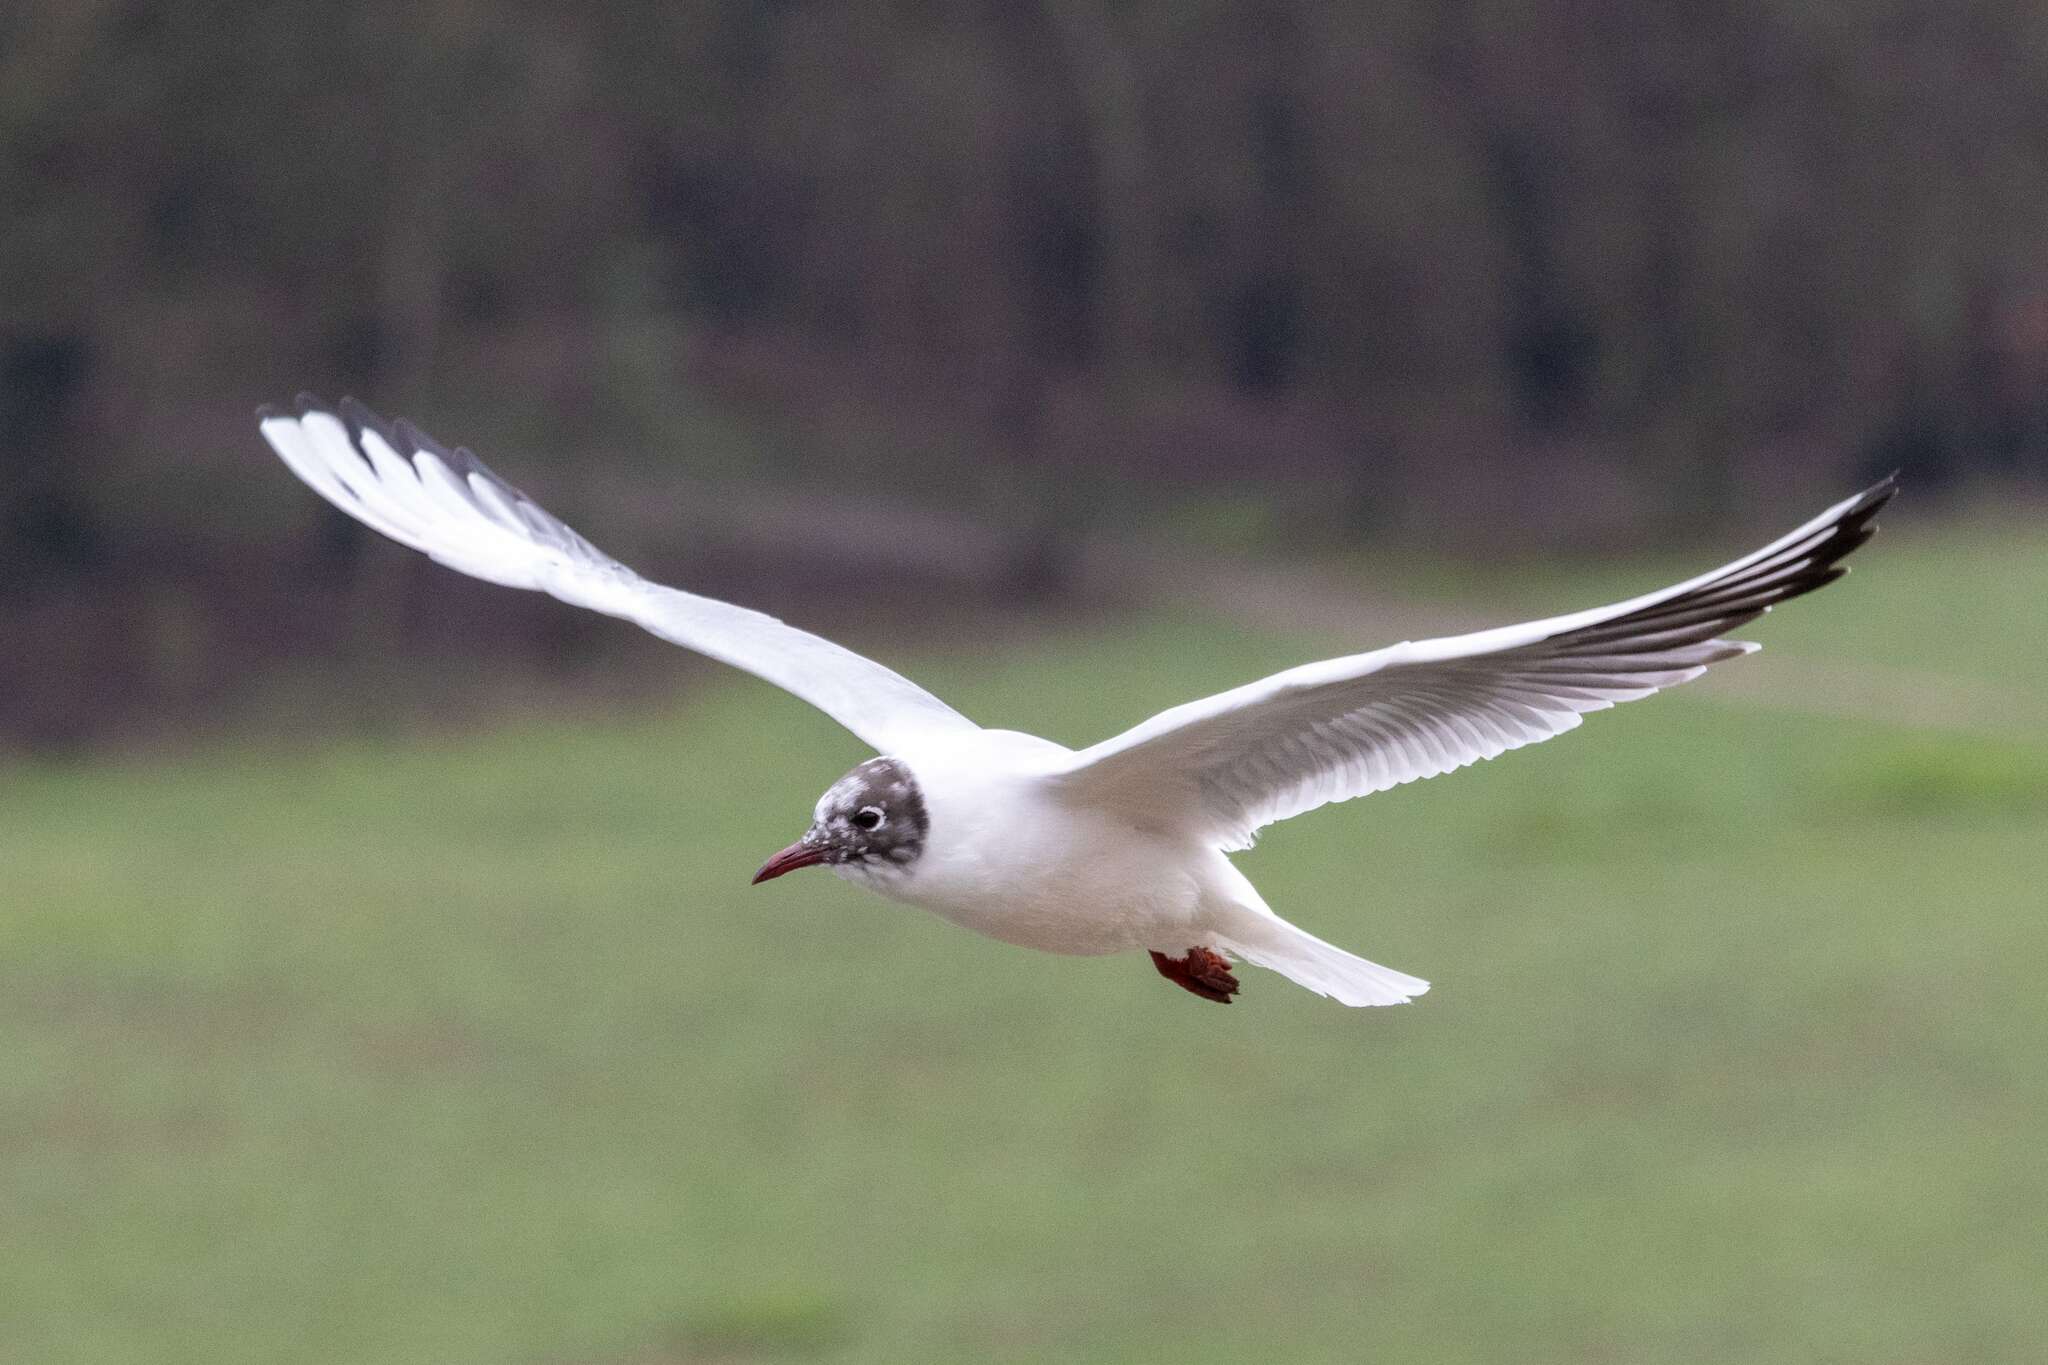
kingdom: Animalia
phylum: Chordata
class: Aves
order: Charadriiformes
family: Laridae
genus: Chroicocephalus
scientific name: Chroicocephalus ridibundus
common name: Black-headed gull
